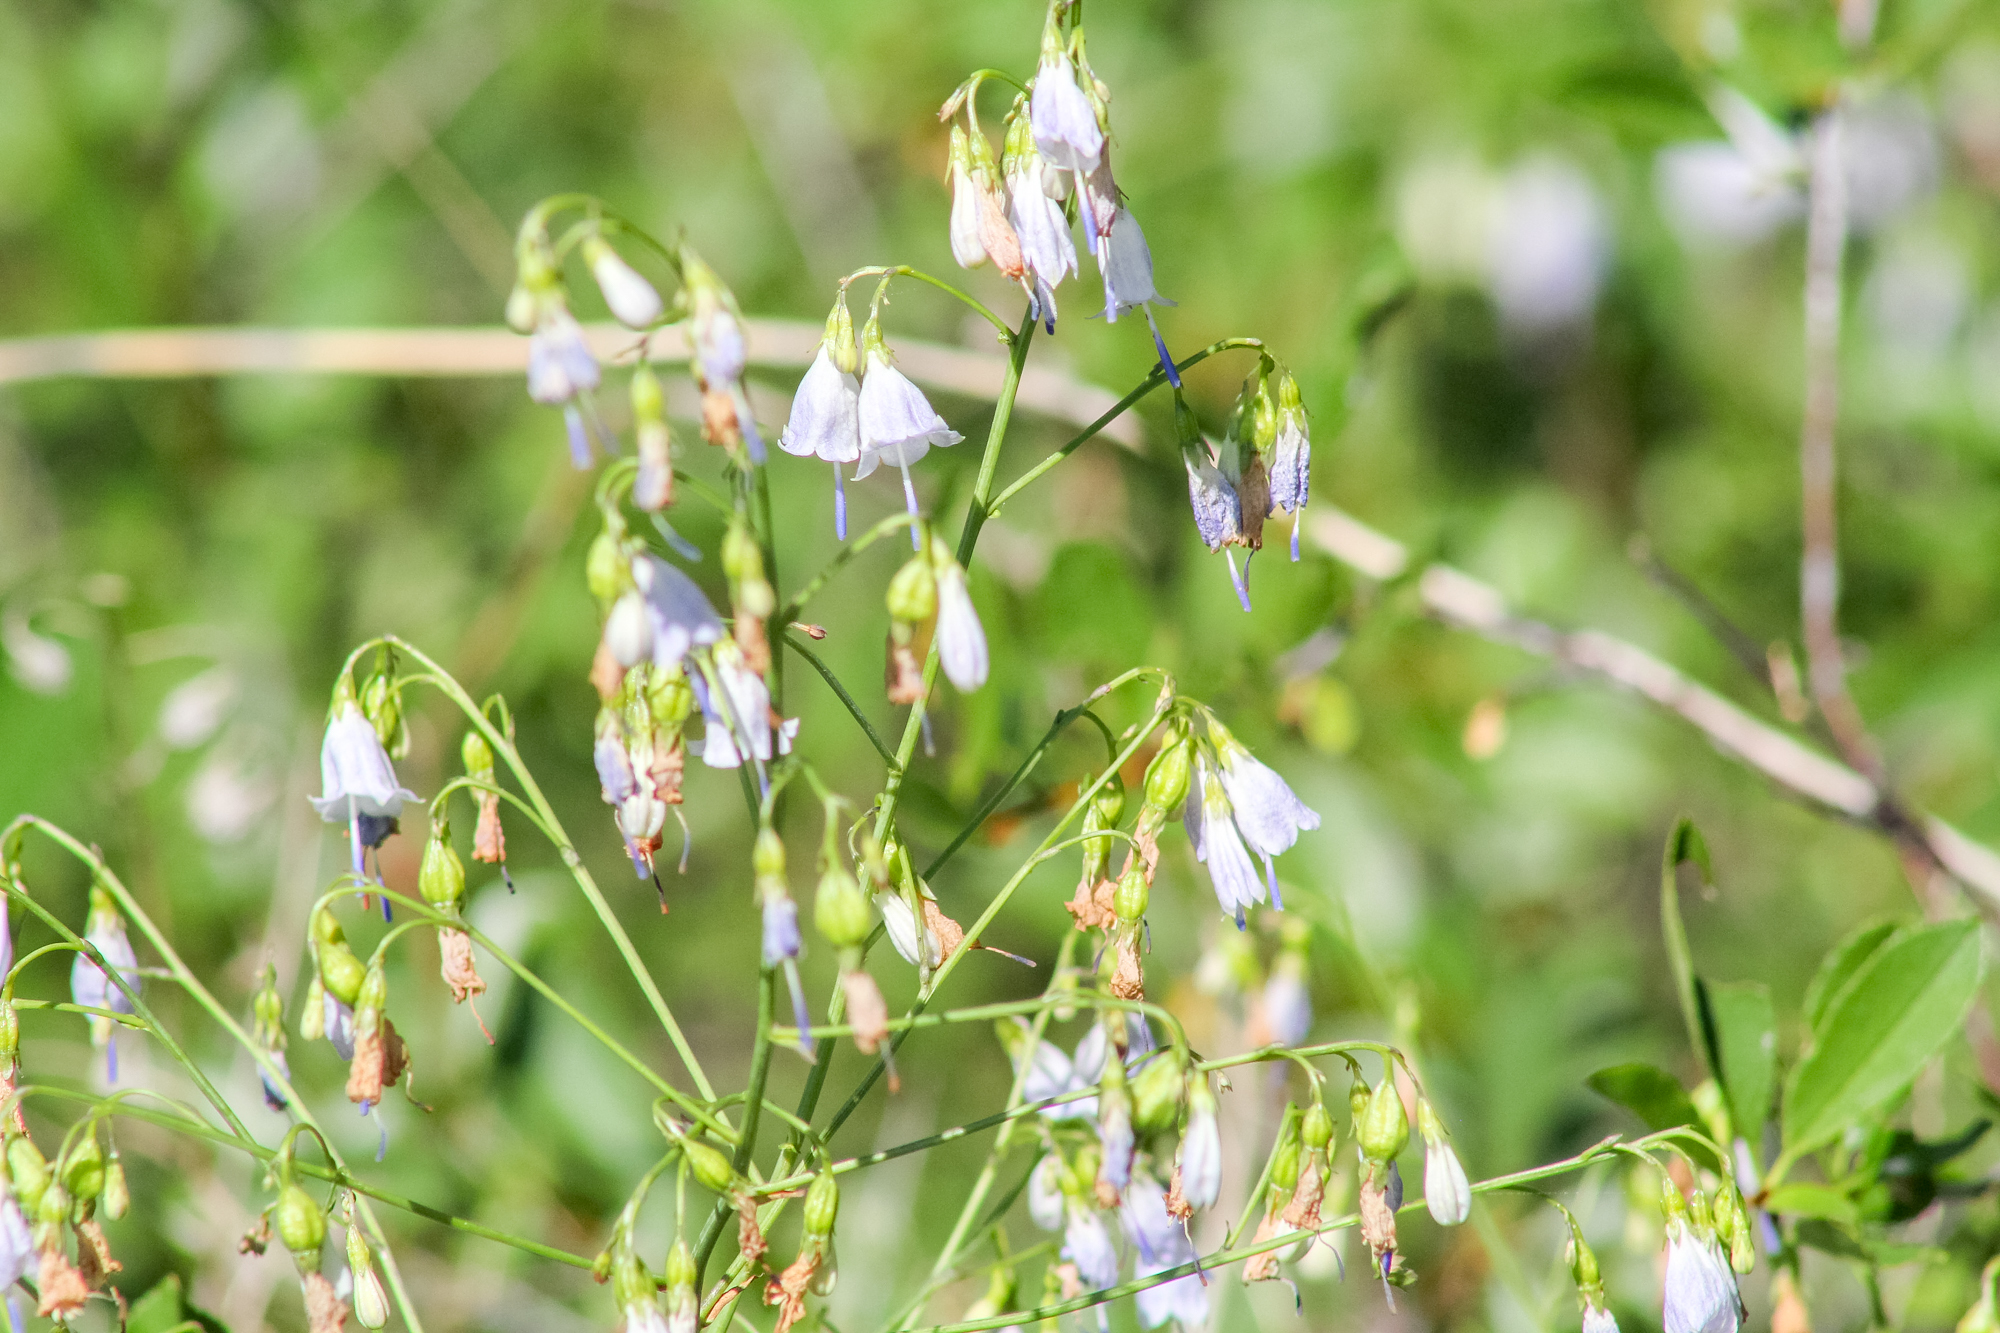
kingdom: Plantae
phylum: Tracheophyta
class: Magnoliopsida
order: Asterales
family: Campanulaceae
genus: Adenophora
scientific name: Adenophora liliifolia
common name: Lilyleaf ladybells
